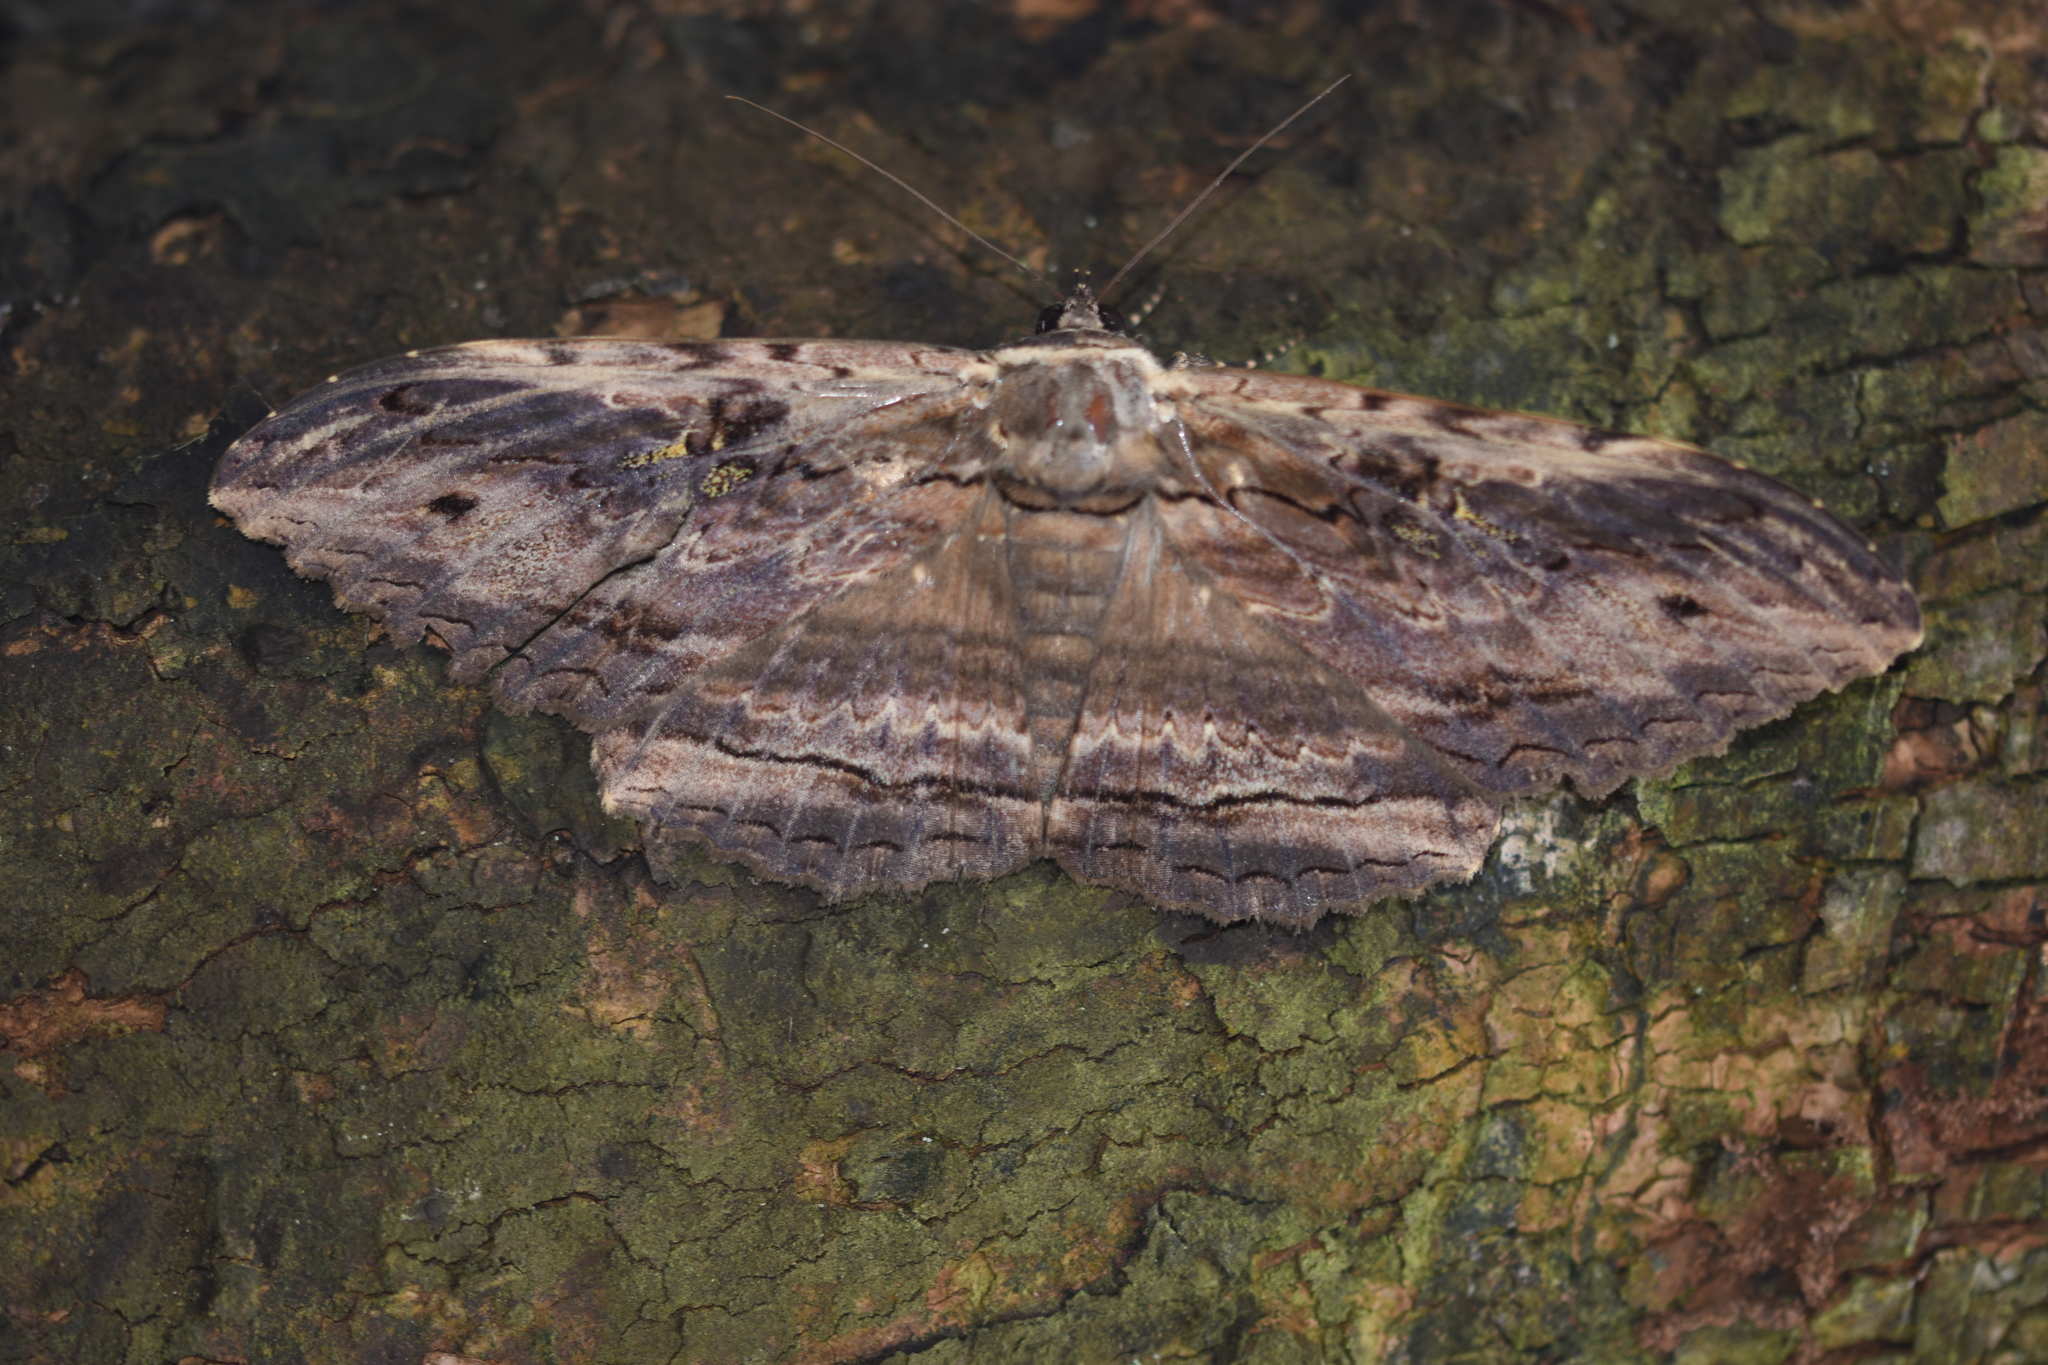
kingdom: Animalia
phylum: Arthropoda
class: Insecta
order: Lepidoptera
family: Erebidae
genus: Anisoneura
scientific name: Anisoneura aluco
